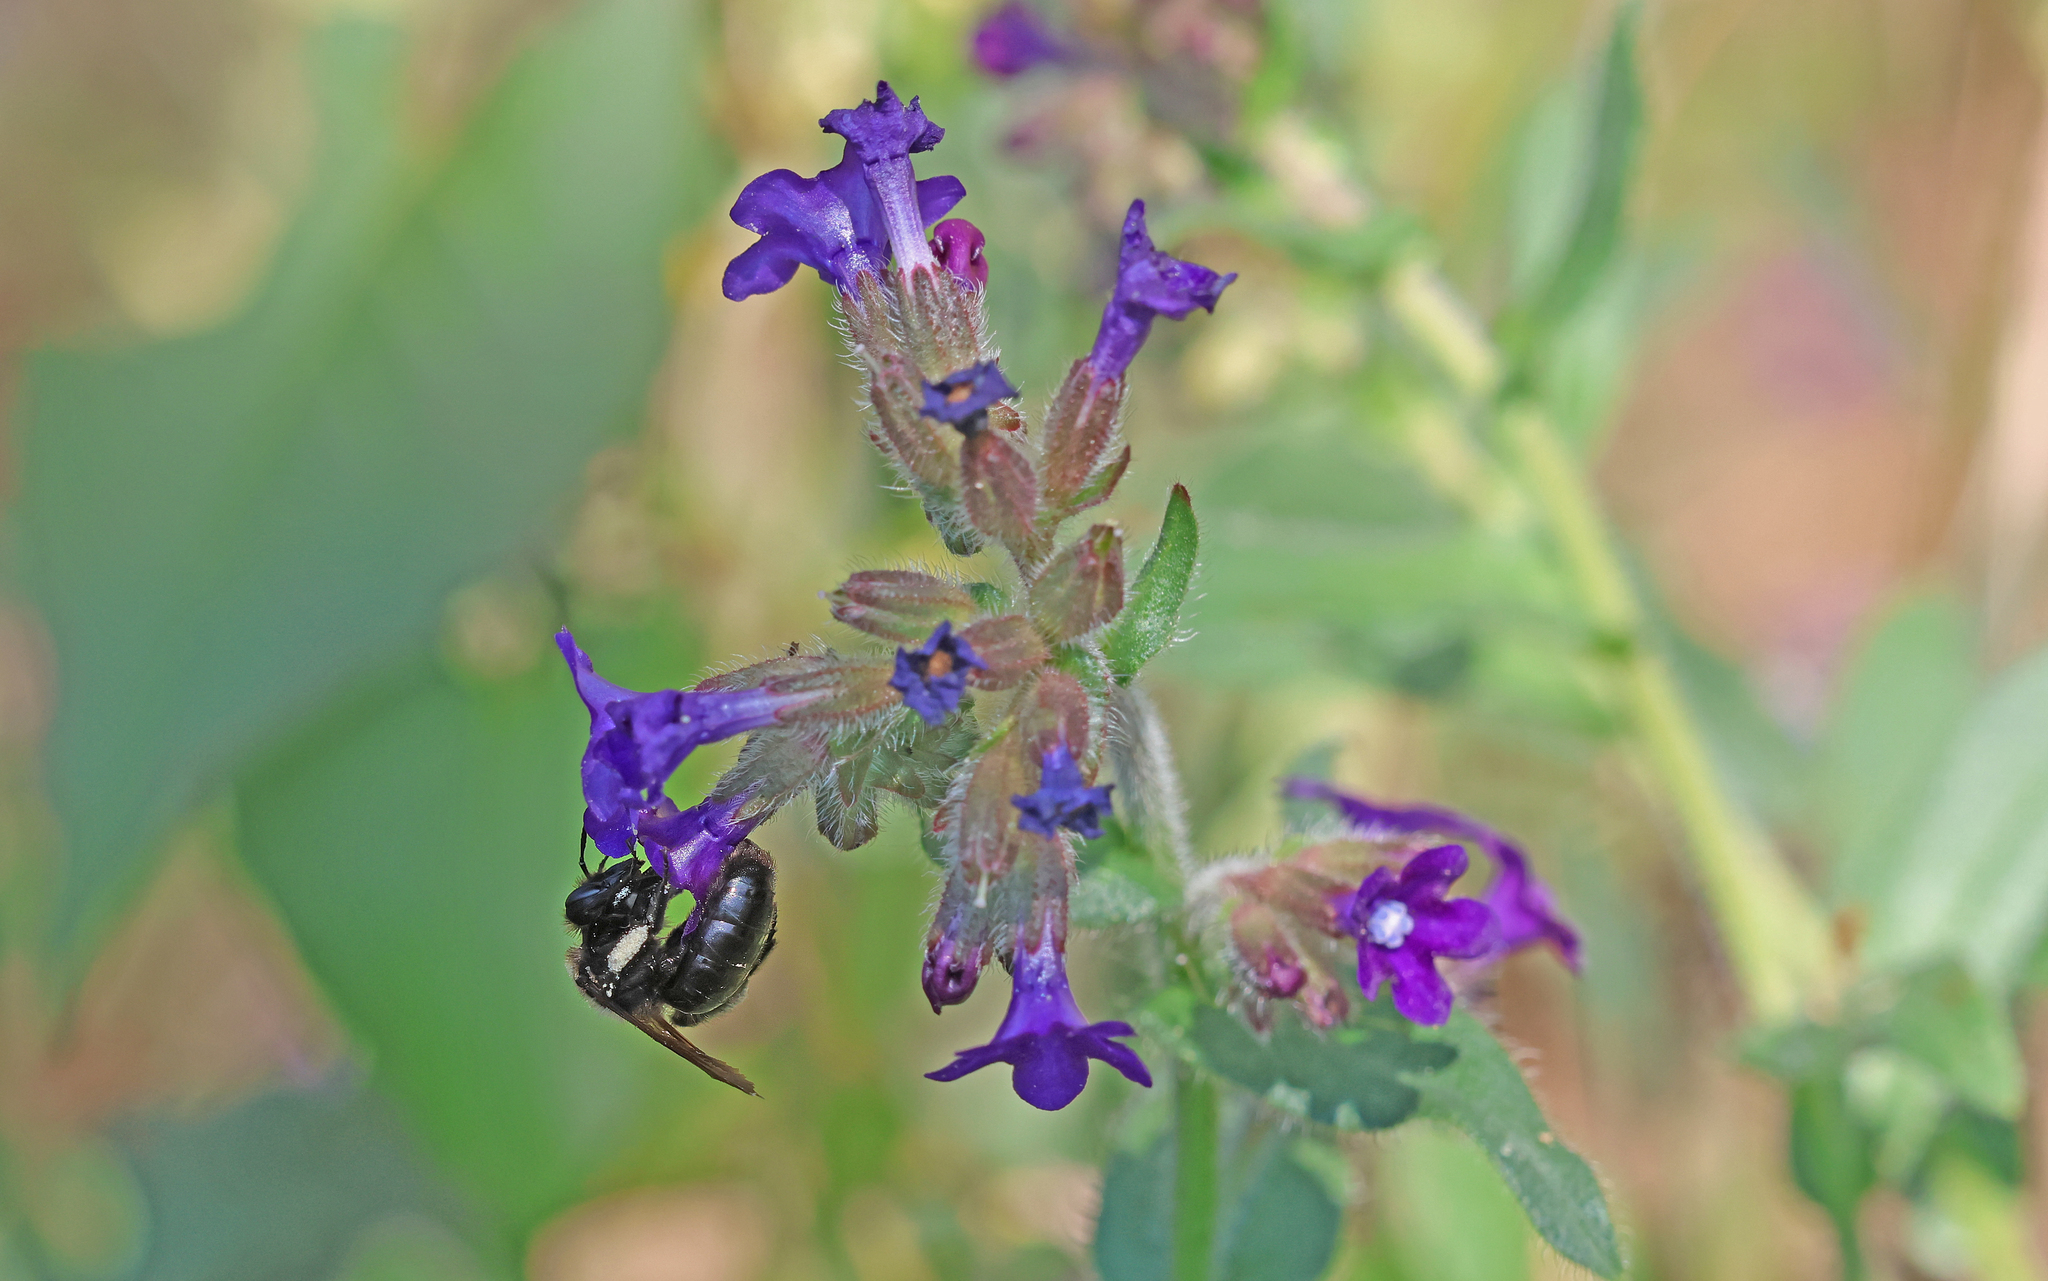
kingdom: Animalia
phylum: Arthropoda
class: Insecta
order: Hymenoptera
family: Andrenidae
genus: Andrena
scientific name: Andrena nasuta
